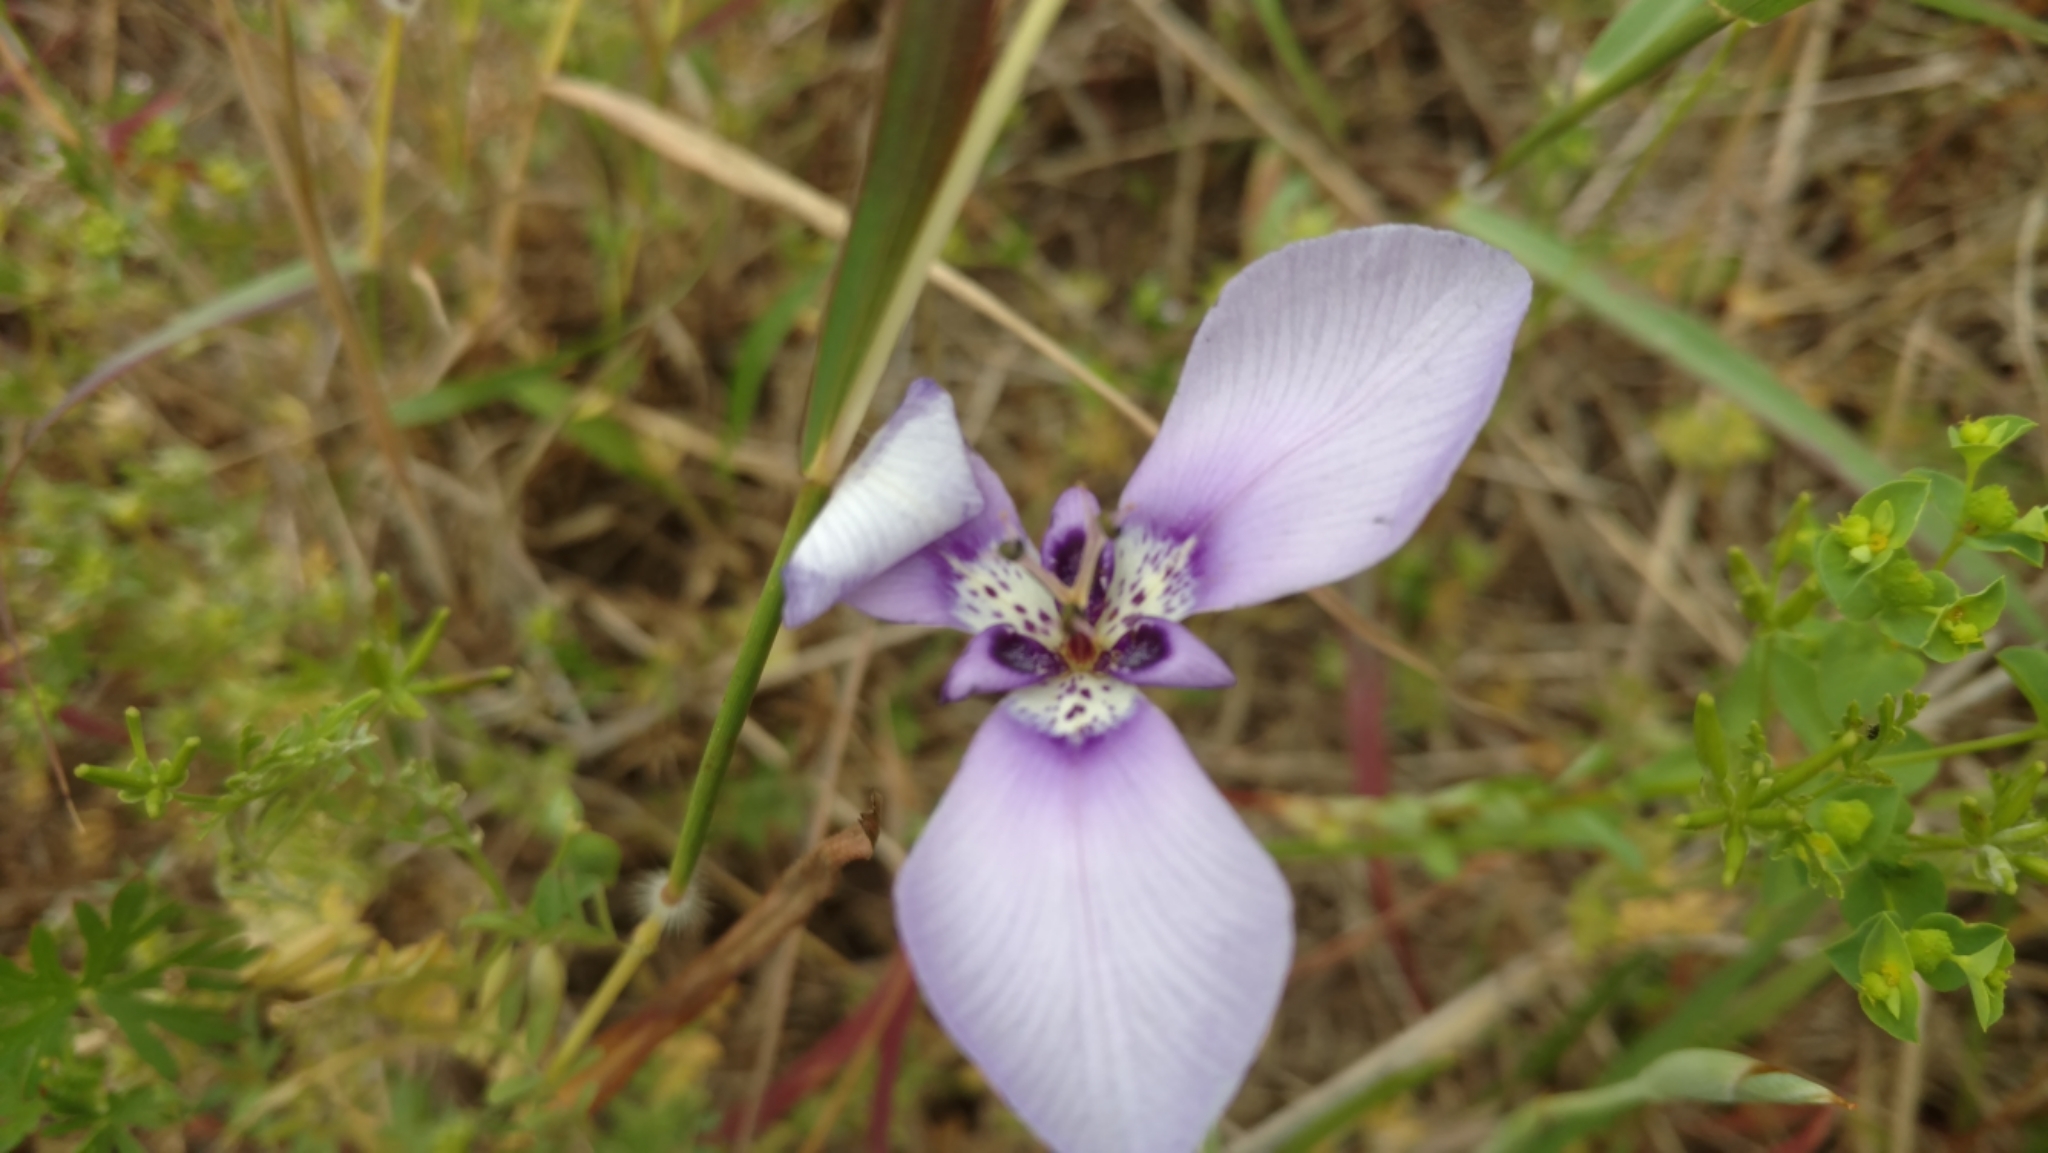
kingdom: Plantae
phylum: Tracheophyta
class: Liliopsida
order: Asparagales
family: Iridaceae
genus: Herbertia
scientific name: Herbertia lahue
